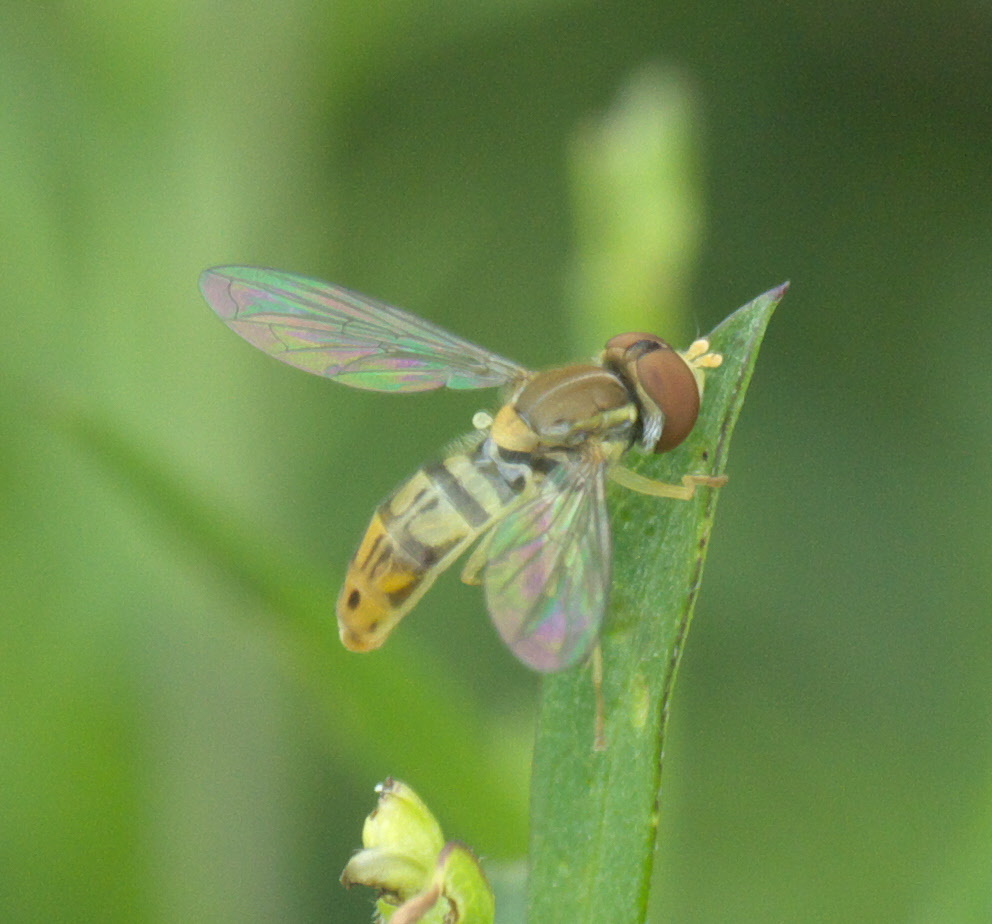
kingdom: Animalia
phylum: Arthropoda
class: Insecta
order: Diptera
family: Syrphidae
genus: Toxomerus
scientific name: Toxomerus marginatus
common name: Syrphid fly
